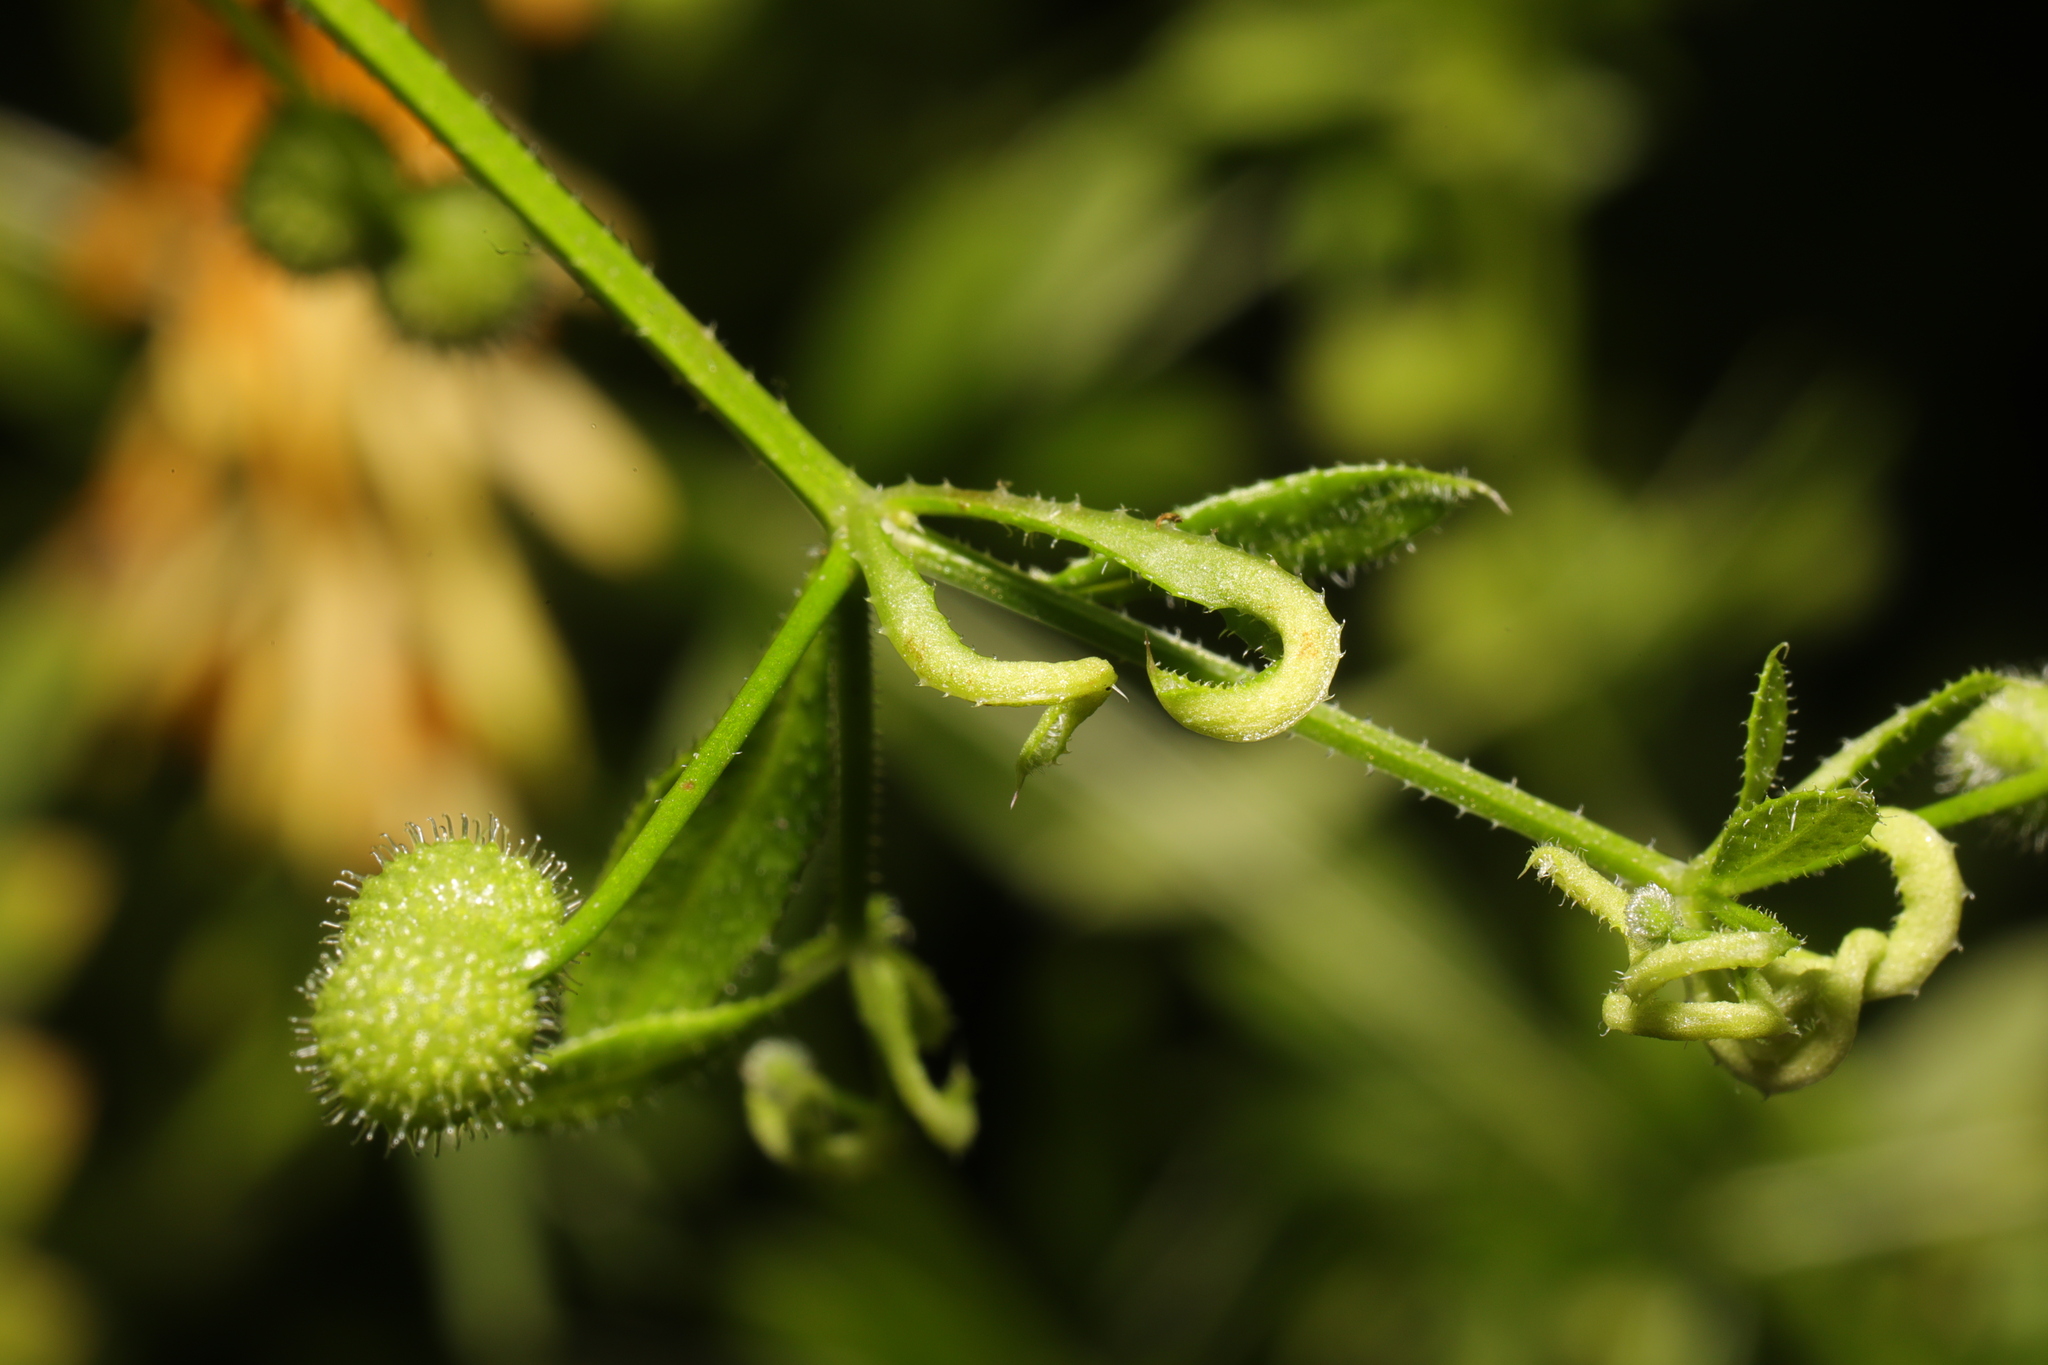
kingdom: Animalia
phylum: Arthropoda
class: Arachnida
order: Trombidiformes
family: Eriophyidae
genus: Cecidophyes
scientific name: Cecidophyes rouhollahi
